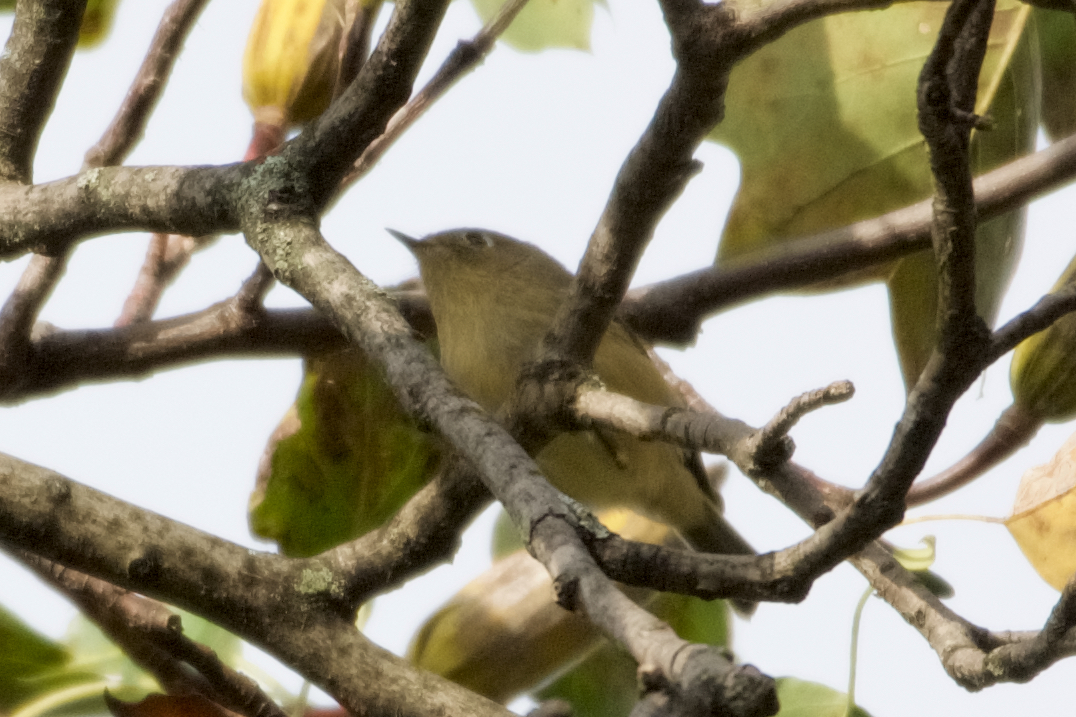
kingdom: Animalia
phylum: Chordata
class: Aves
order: Passeriformes
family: Regulidae
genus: Regulus
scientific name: Regulus calendula
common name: Ruby-crowned kinglet
